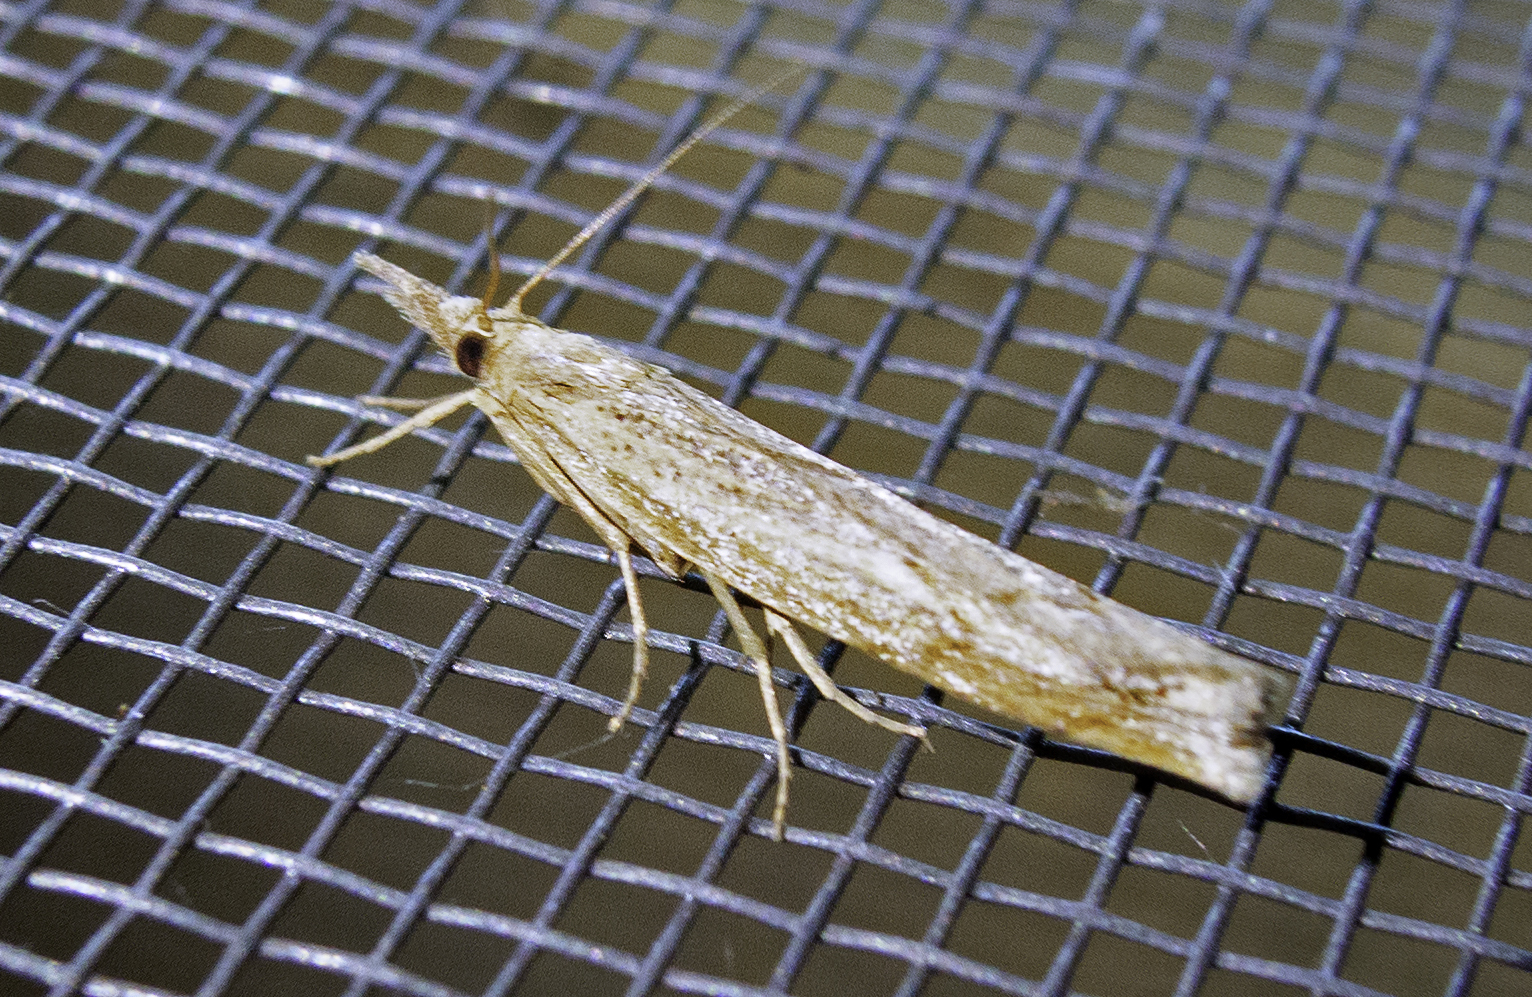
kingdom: Animalia
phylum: Arthropoda
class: Insecta
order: Lepidoptera
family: Crambidae
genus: Pediasia
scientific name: Pediasia contaminella
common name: Waste grass-veneer
